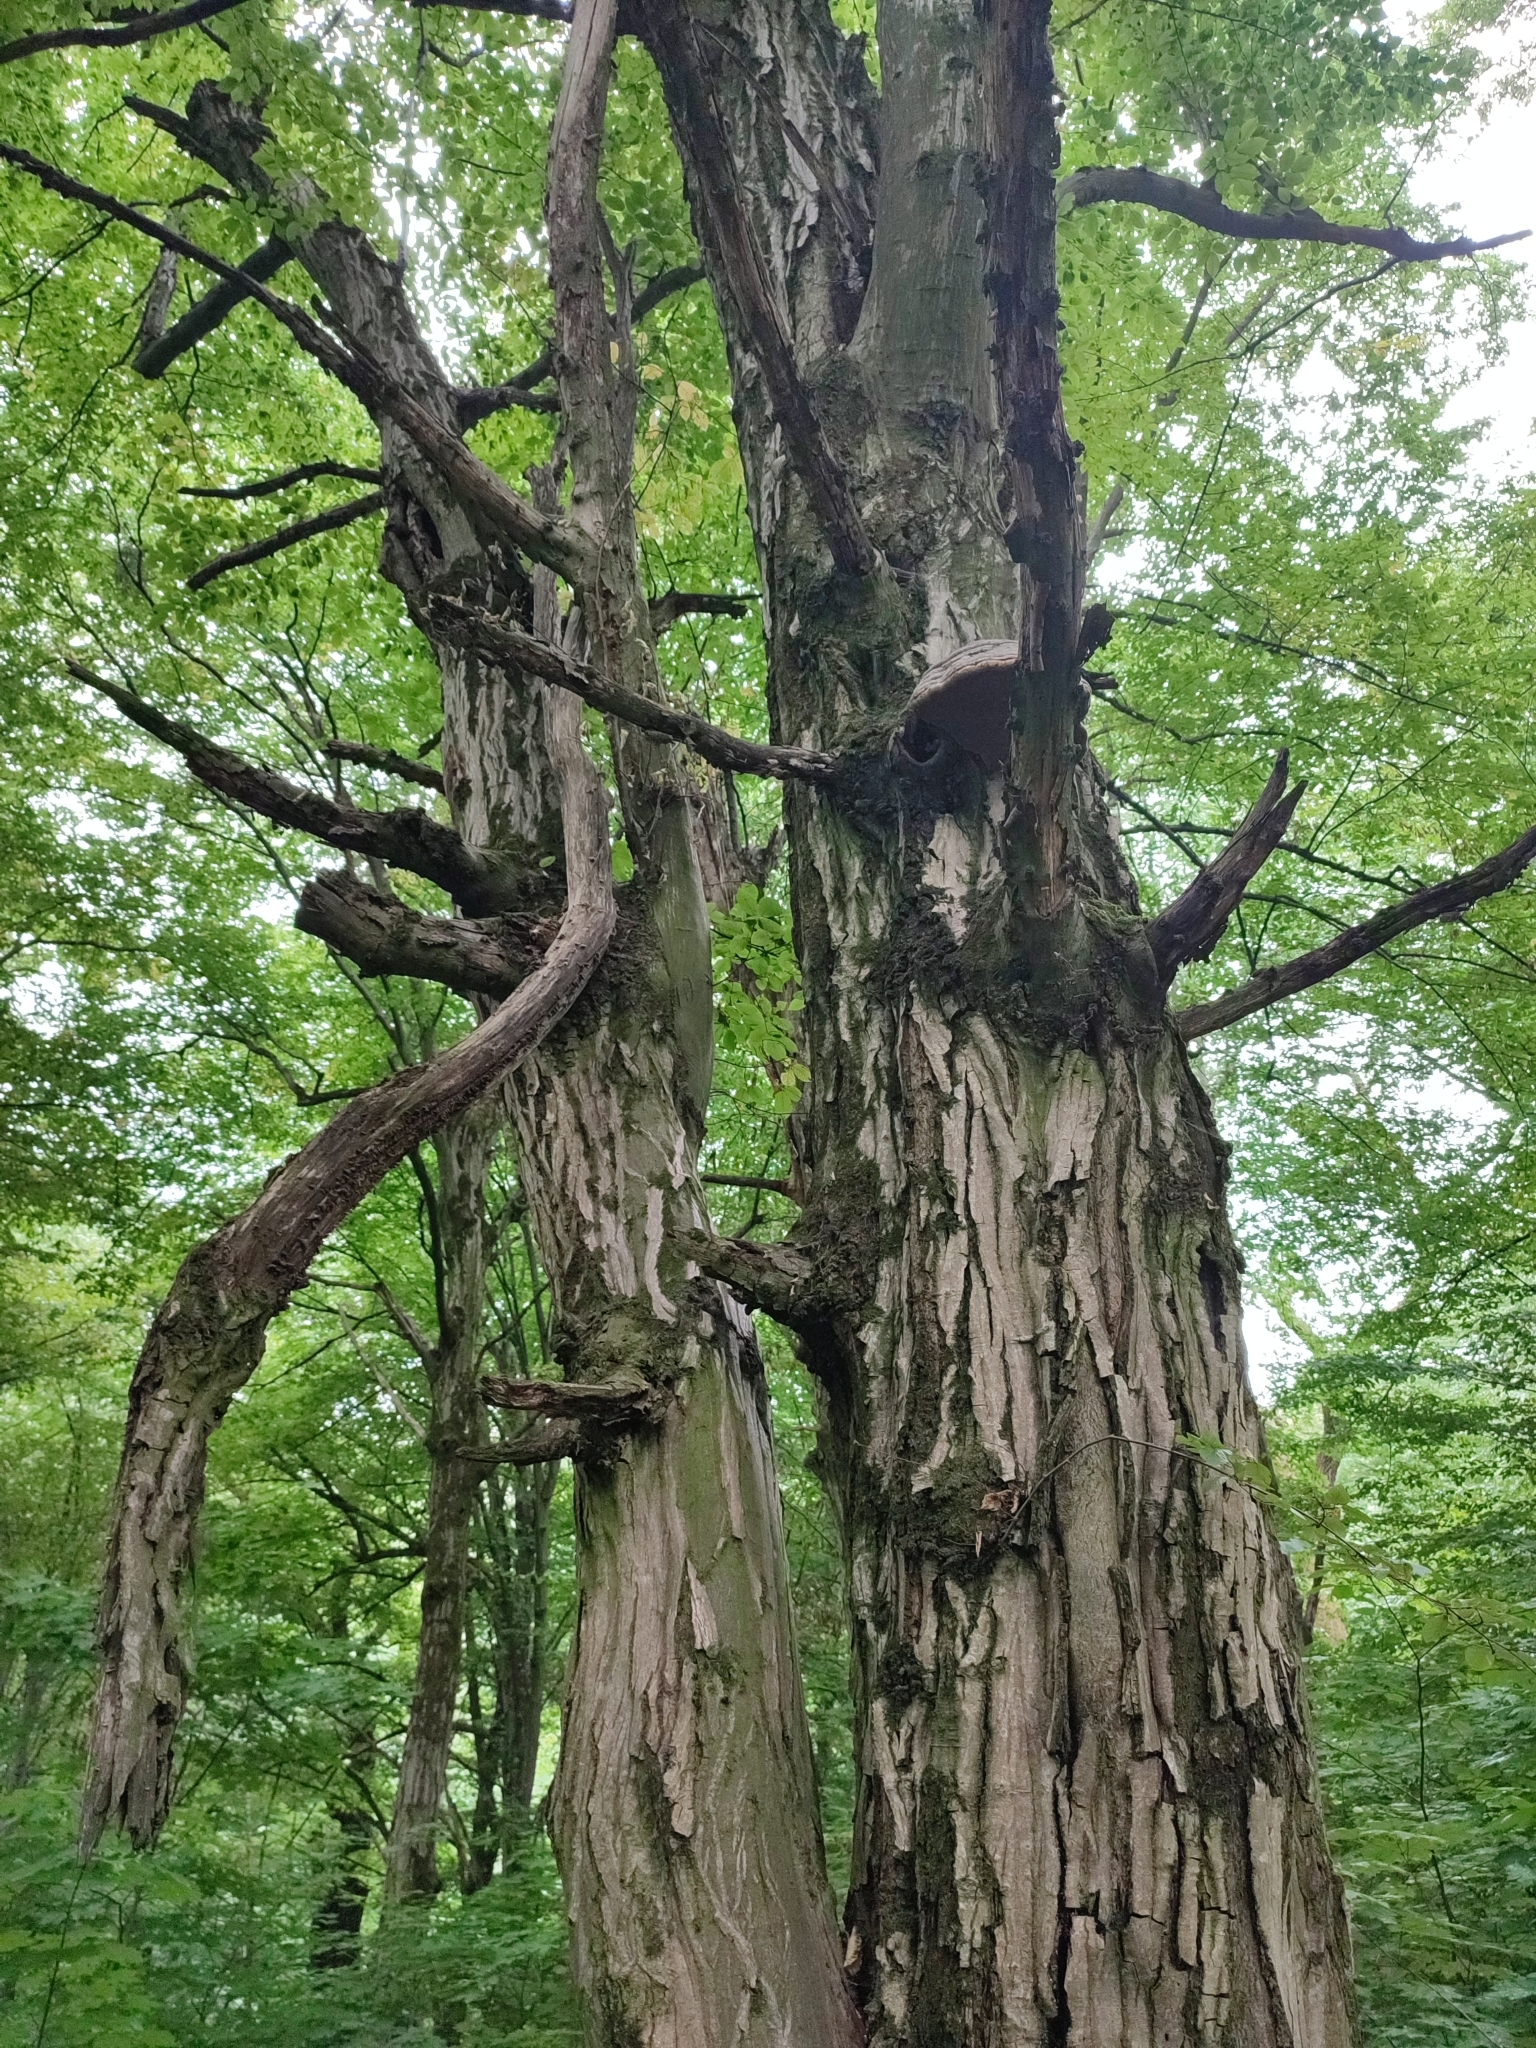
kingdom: Plantae
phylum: Tracheophyta
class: Magnoliopsida
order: Fagales
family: Betulaceae
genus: Carpinus
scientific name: Carpinus betulus
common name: Hornbeam
